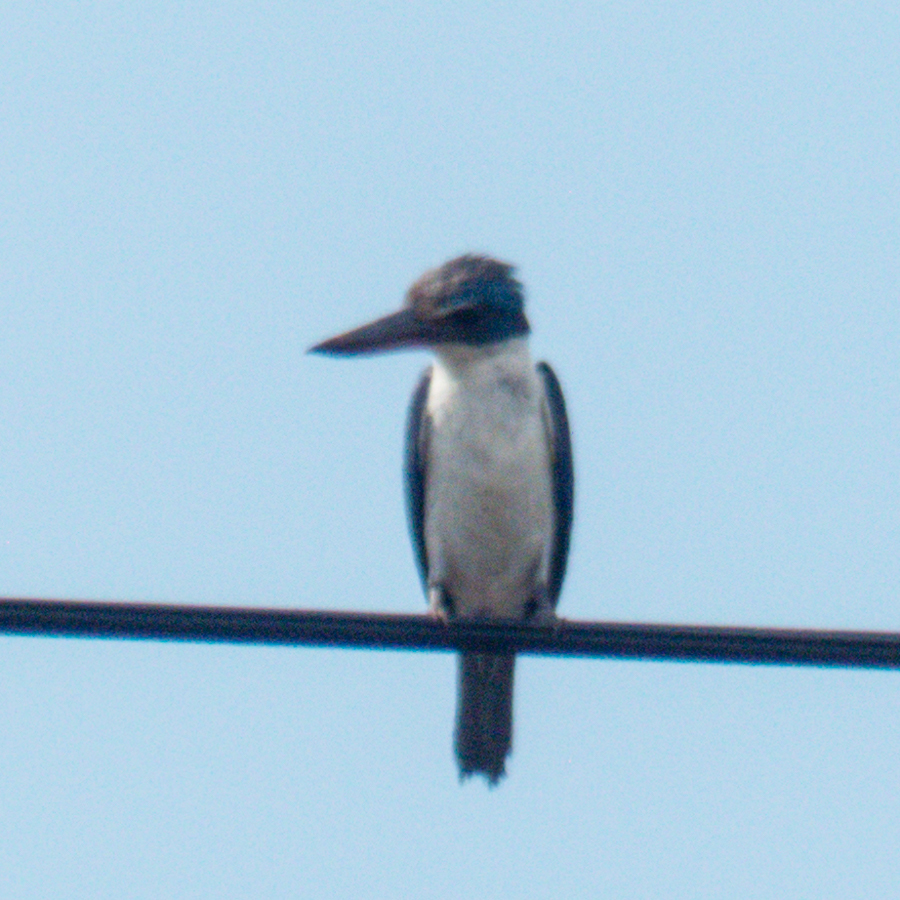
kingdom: Animalia
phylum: Chordata
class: Aves
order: Coraciiformes
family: Alcedinidae
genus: Todiramphus
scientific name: Todiramphus chloris
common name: Collared kingfisher
